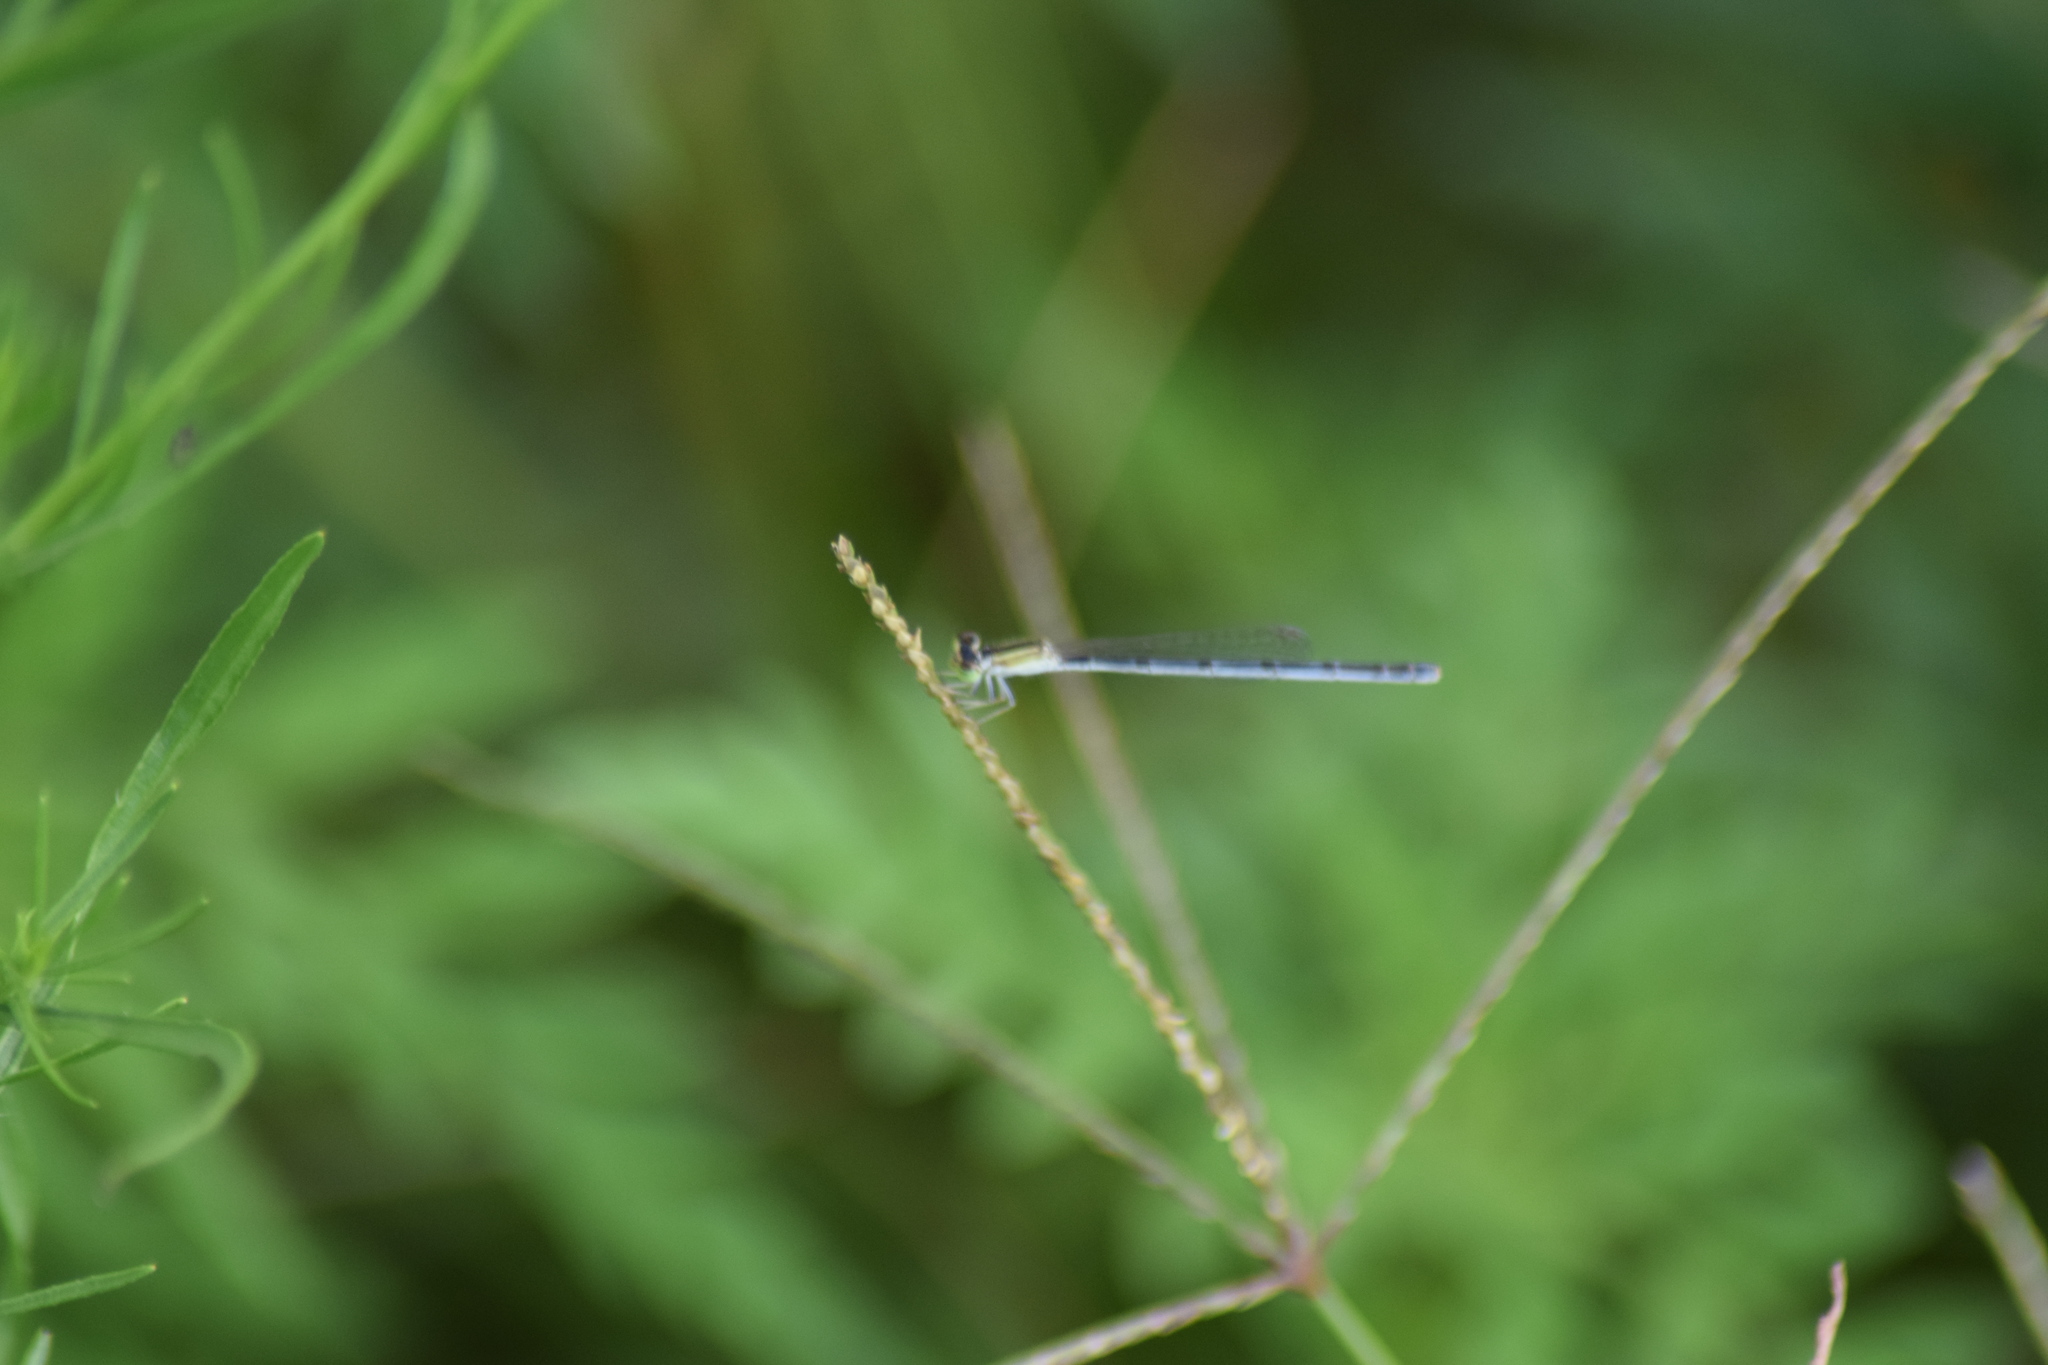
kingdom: Animalia
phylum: Arthropoda
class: Insecta
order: Odonata
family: Coenagrionidae
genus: Ischnura
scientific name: Ischnura hastata
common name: Citrine forktail
